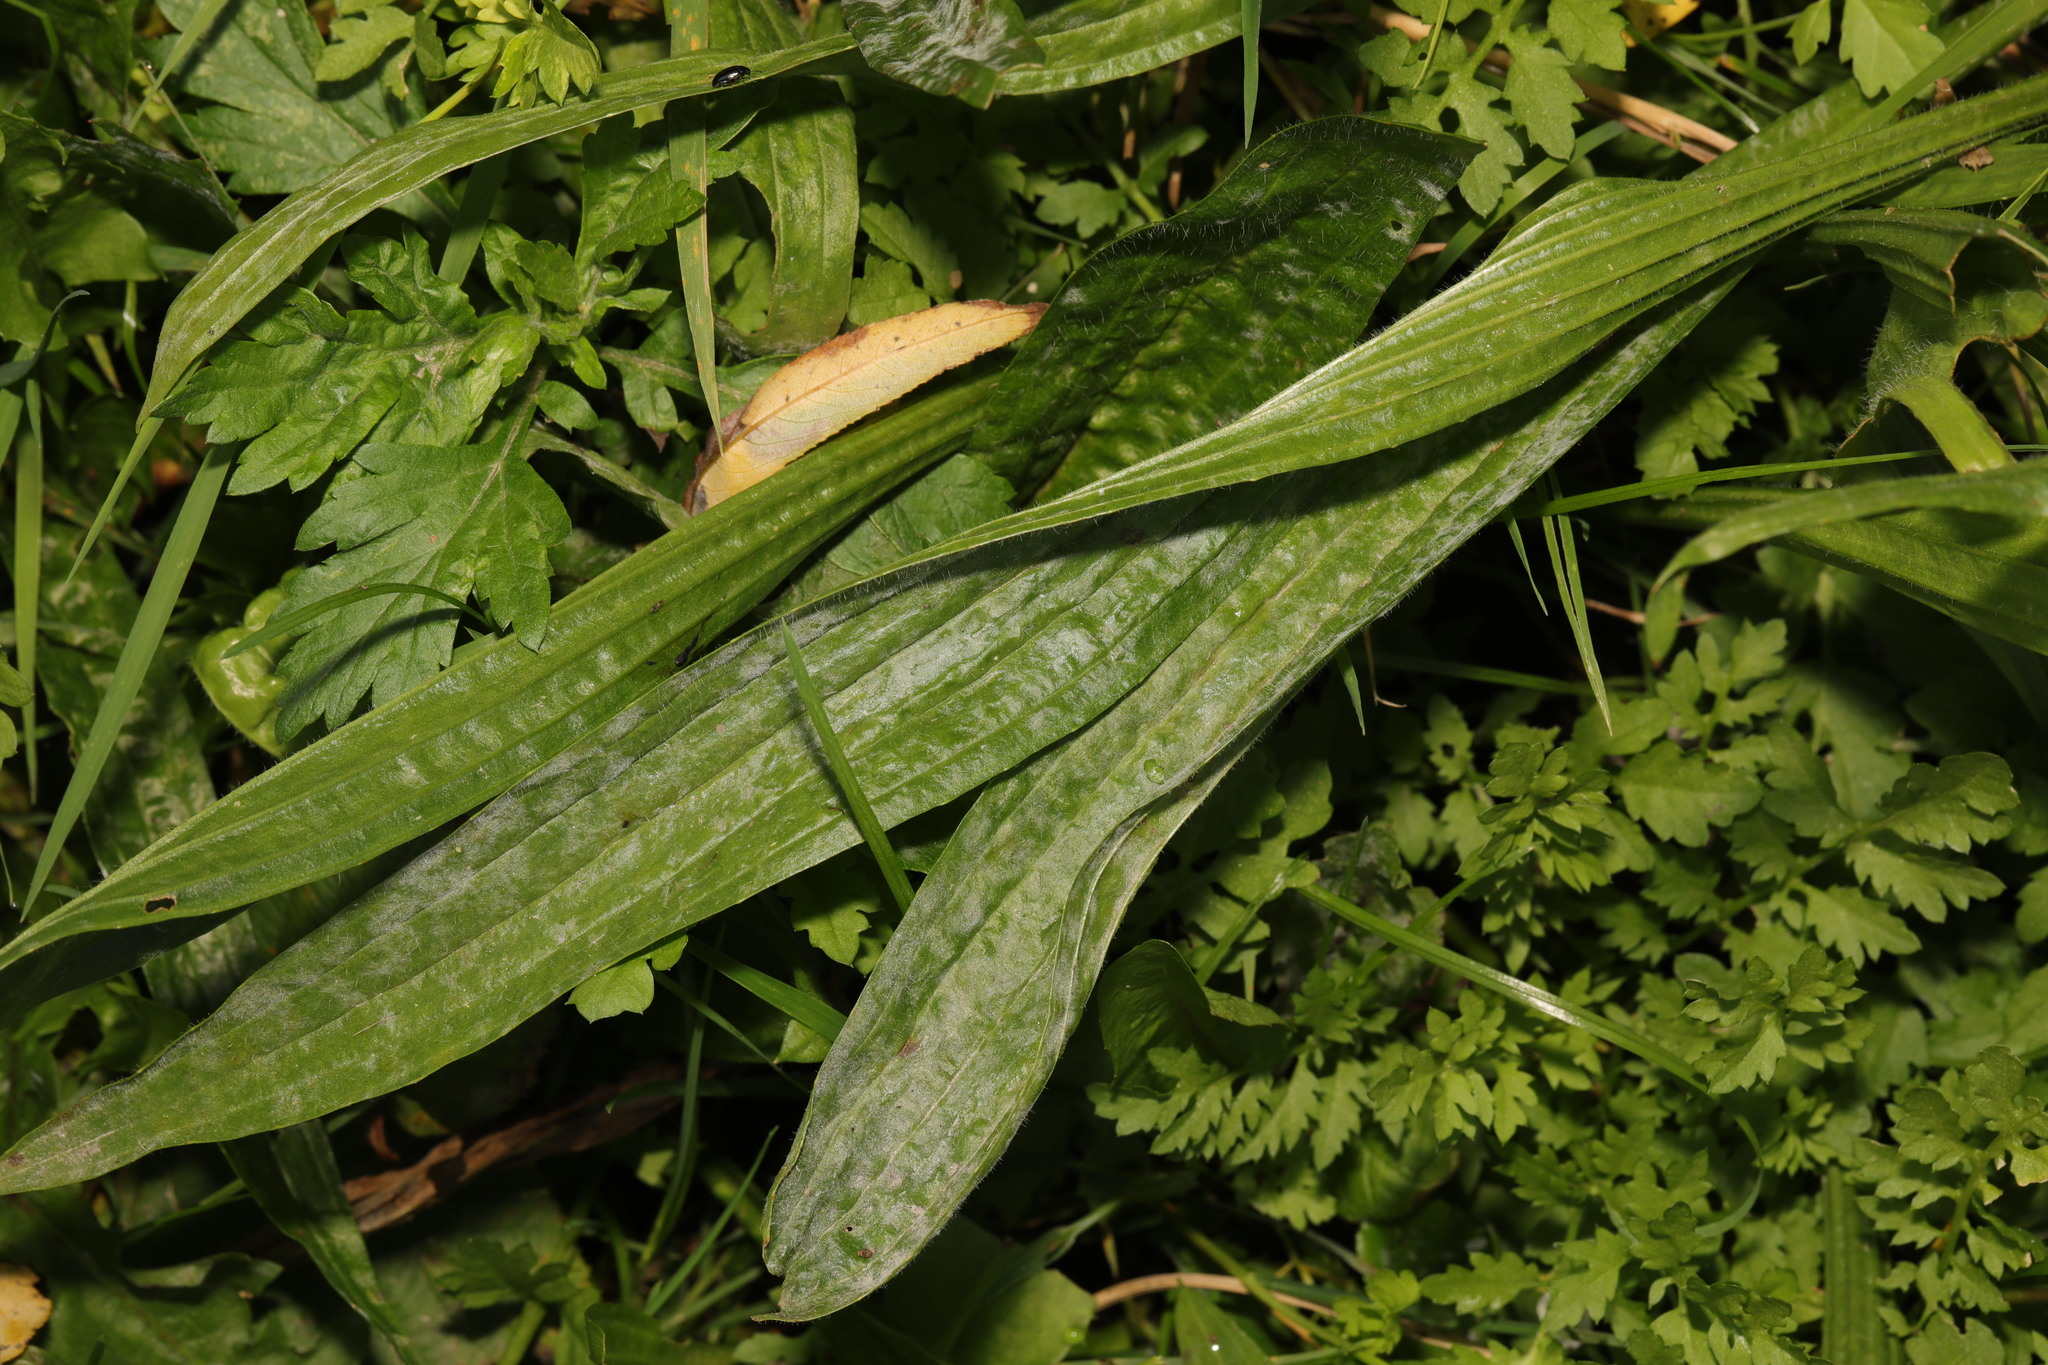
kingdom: Plantae
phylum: Tracheophyta
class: Magnoliopsida
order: Lamiales
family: Plantaginaceae
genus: Plantago
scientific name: Plantago lanceolata
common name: Ribwort plantain
